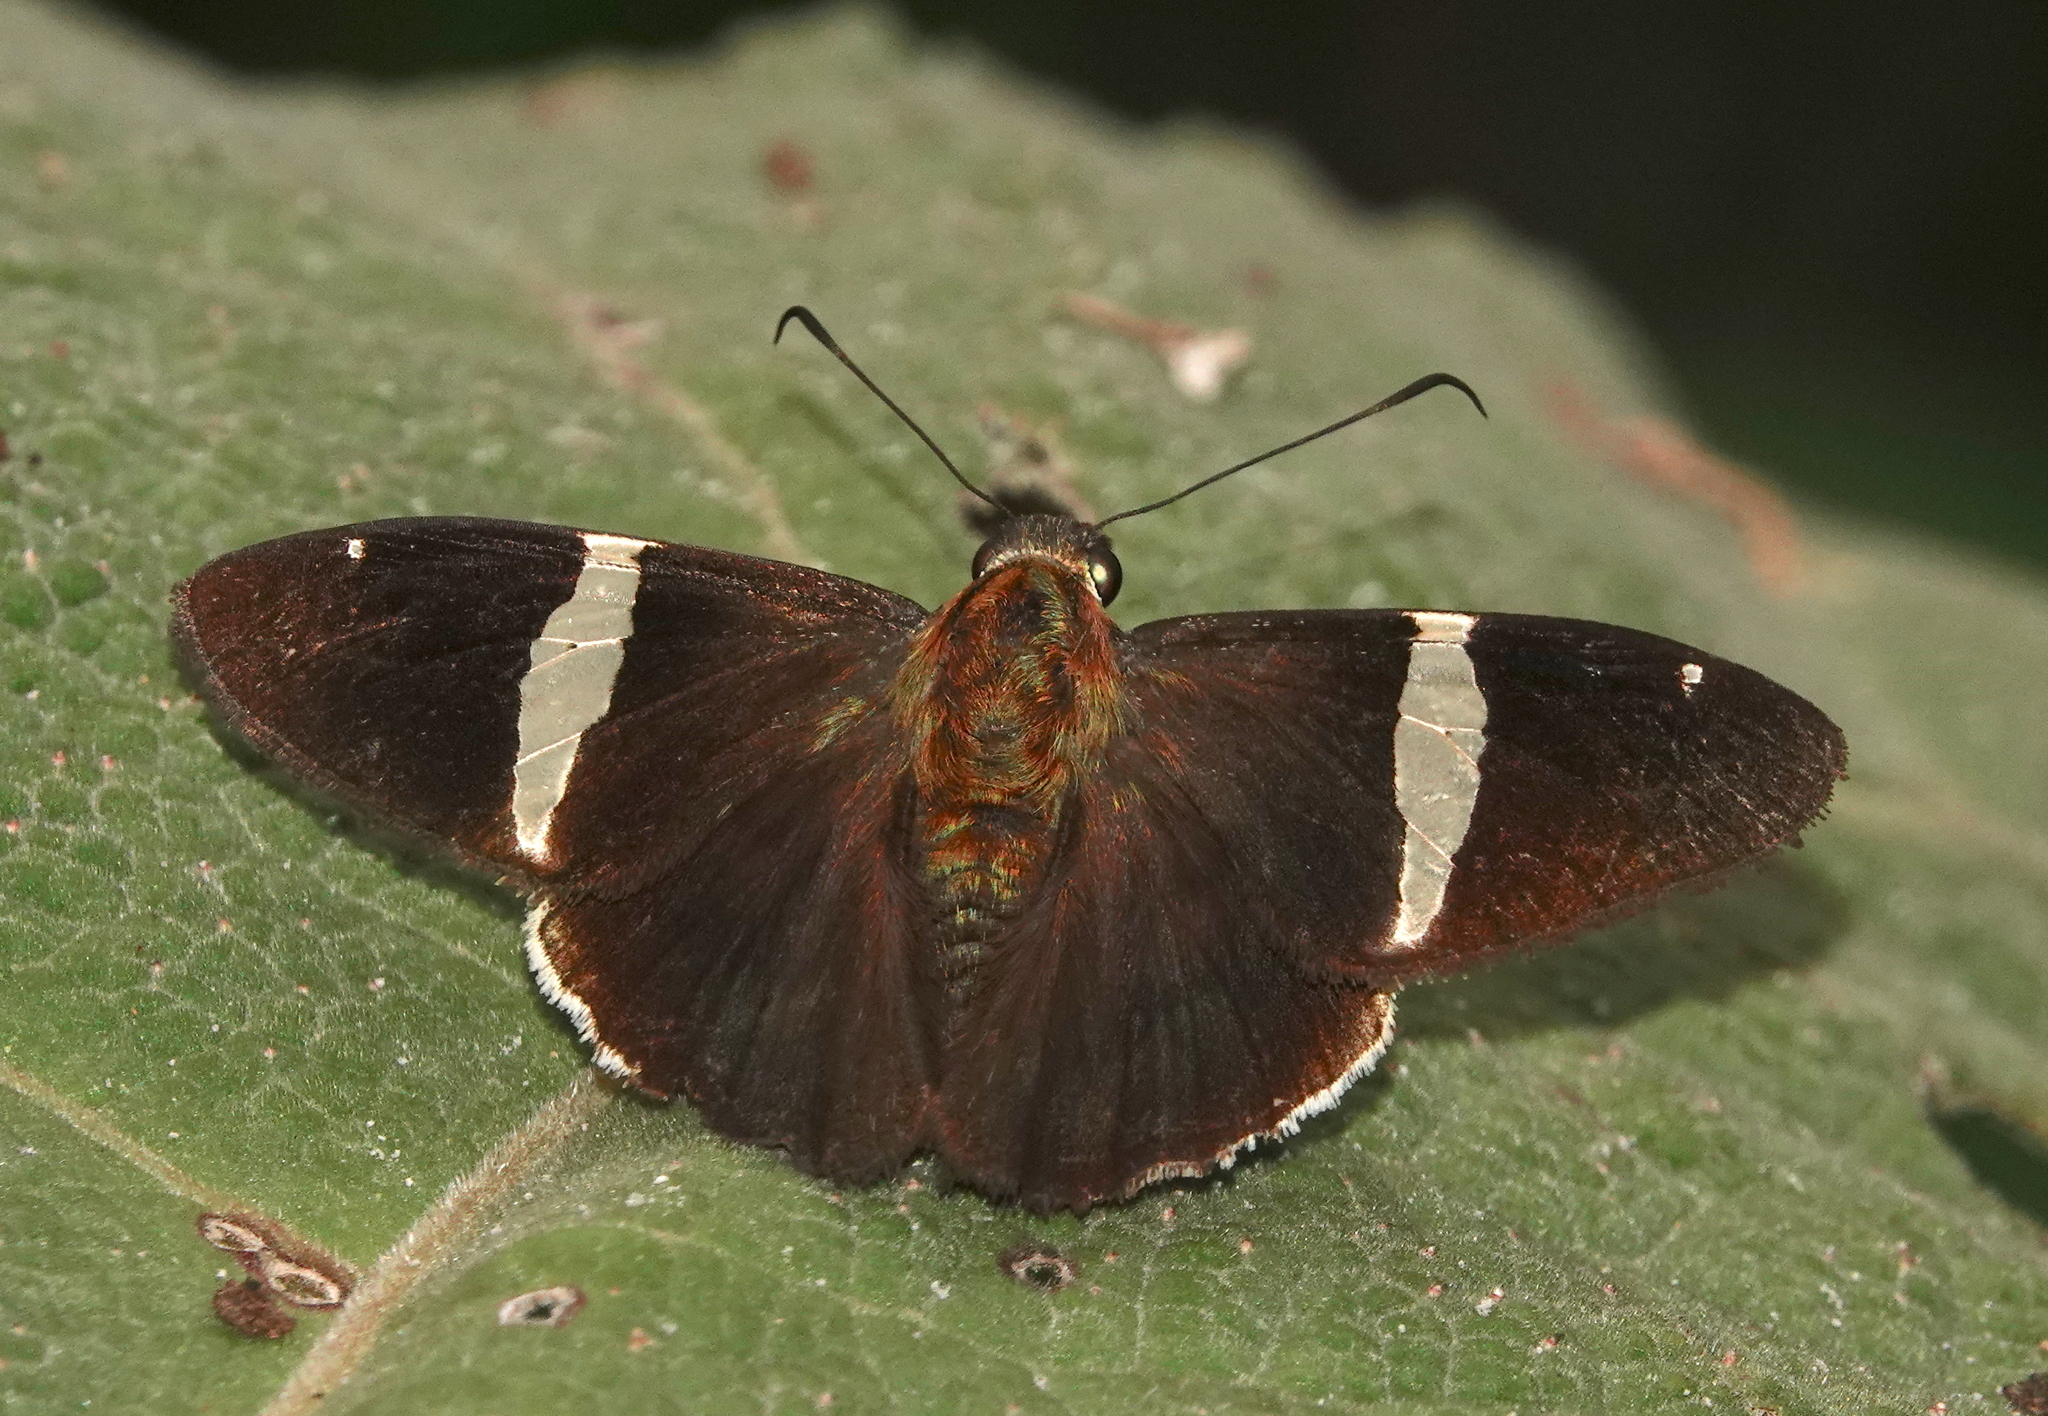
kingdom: Animalia
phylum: Arthropoda
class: Insecta
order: Lepidoptera
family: Hesperiidae
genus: Autochton
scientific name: Autochton zarex
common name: Sharp banded-skipper
